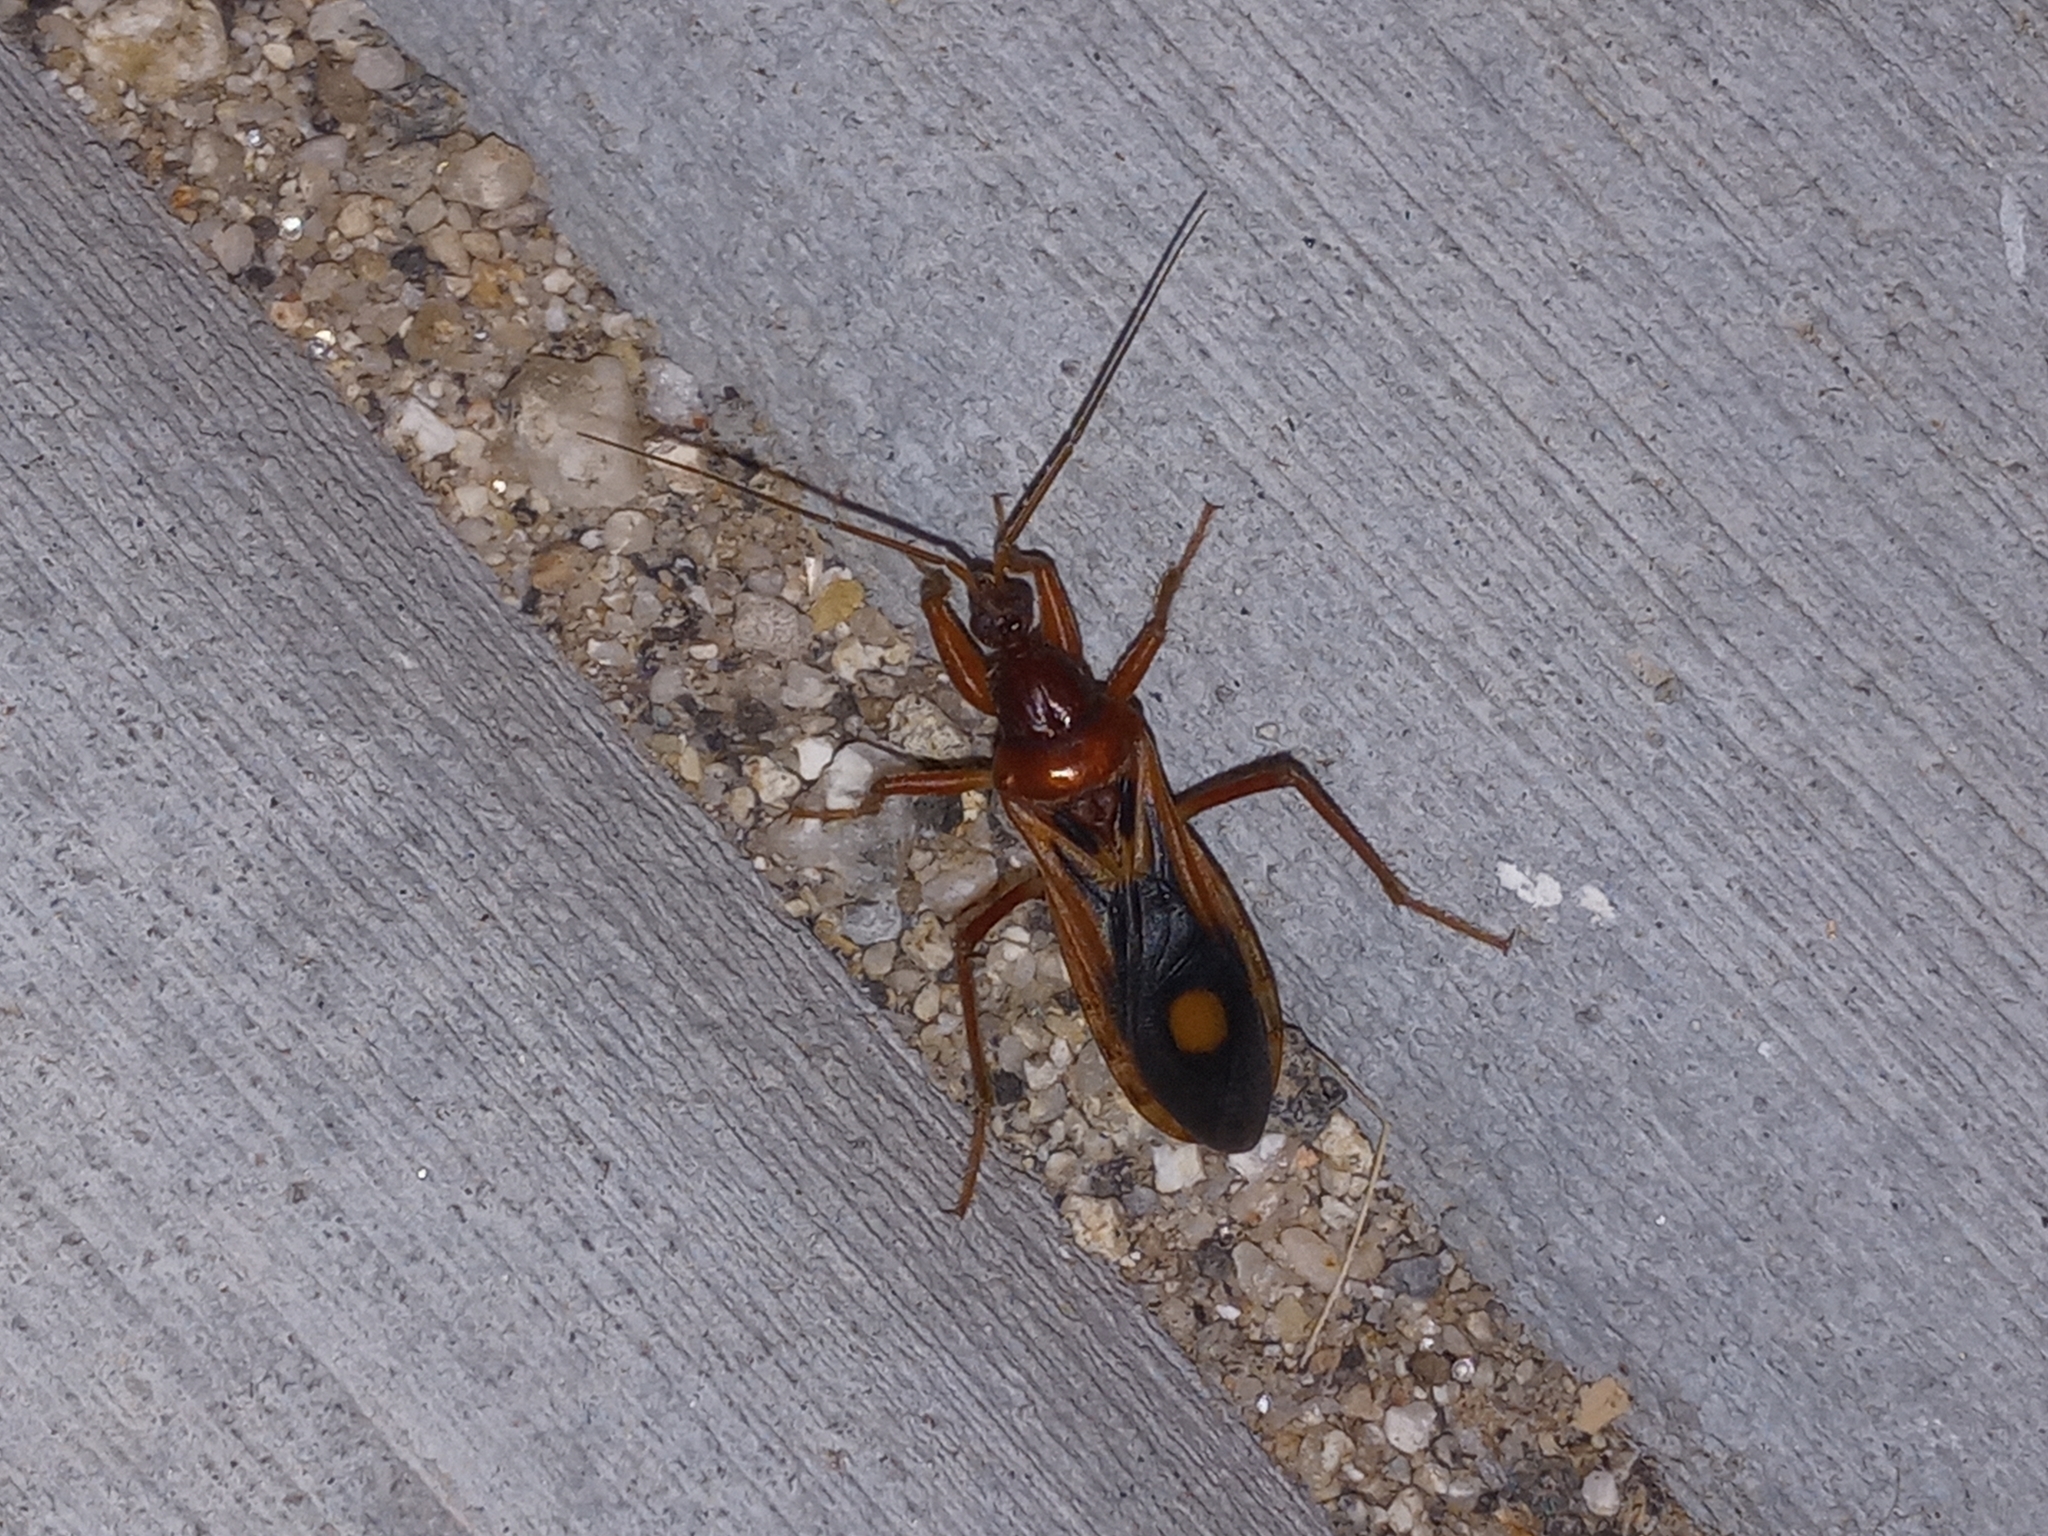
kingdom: Animalia
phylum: Arthropoda
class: Insecta
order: Hemiptera
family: Reduviidae
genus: Rasahus
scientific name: Rasahus thoracicus
